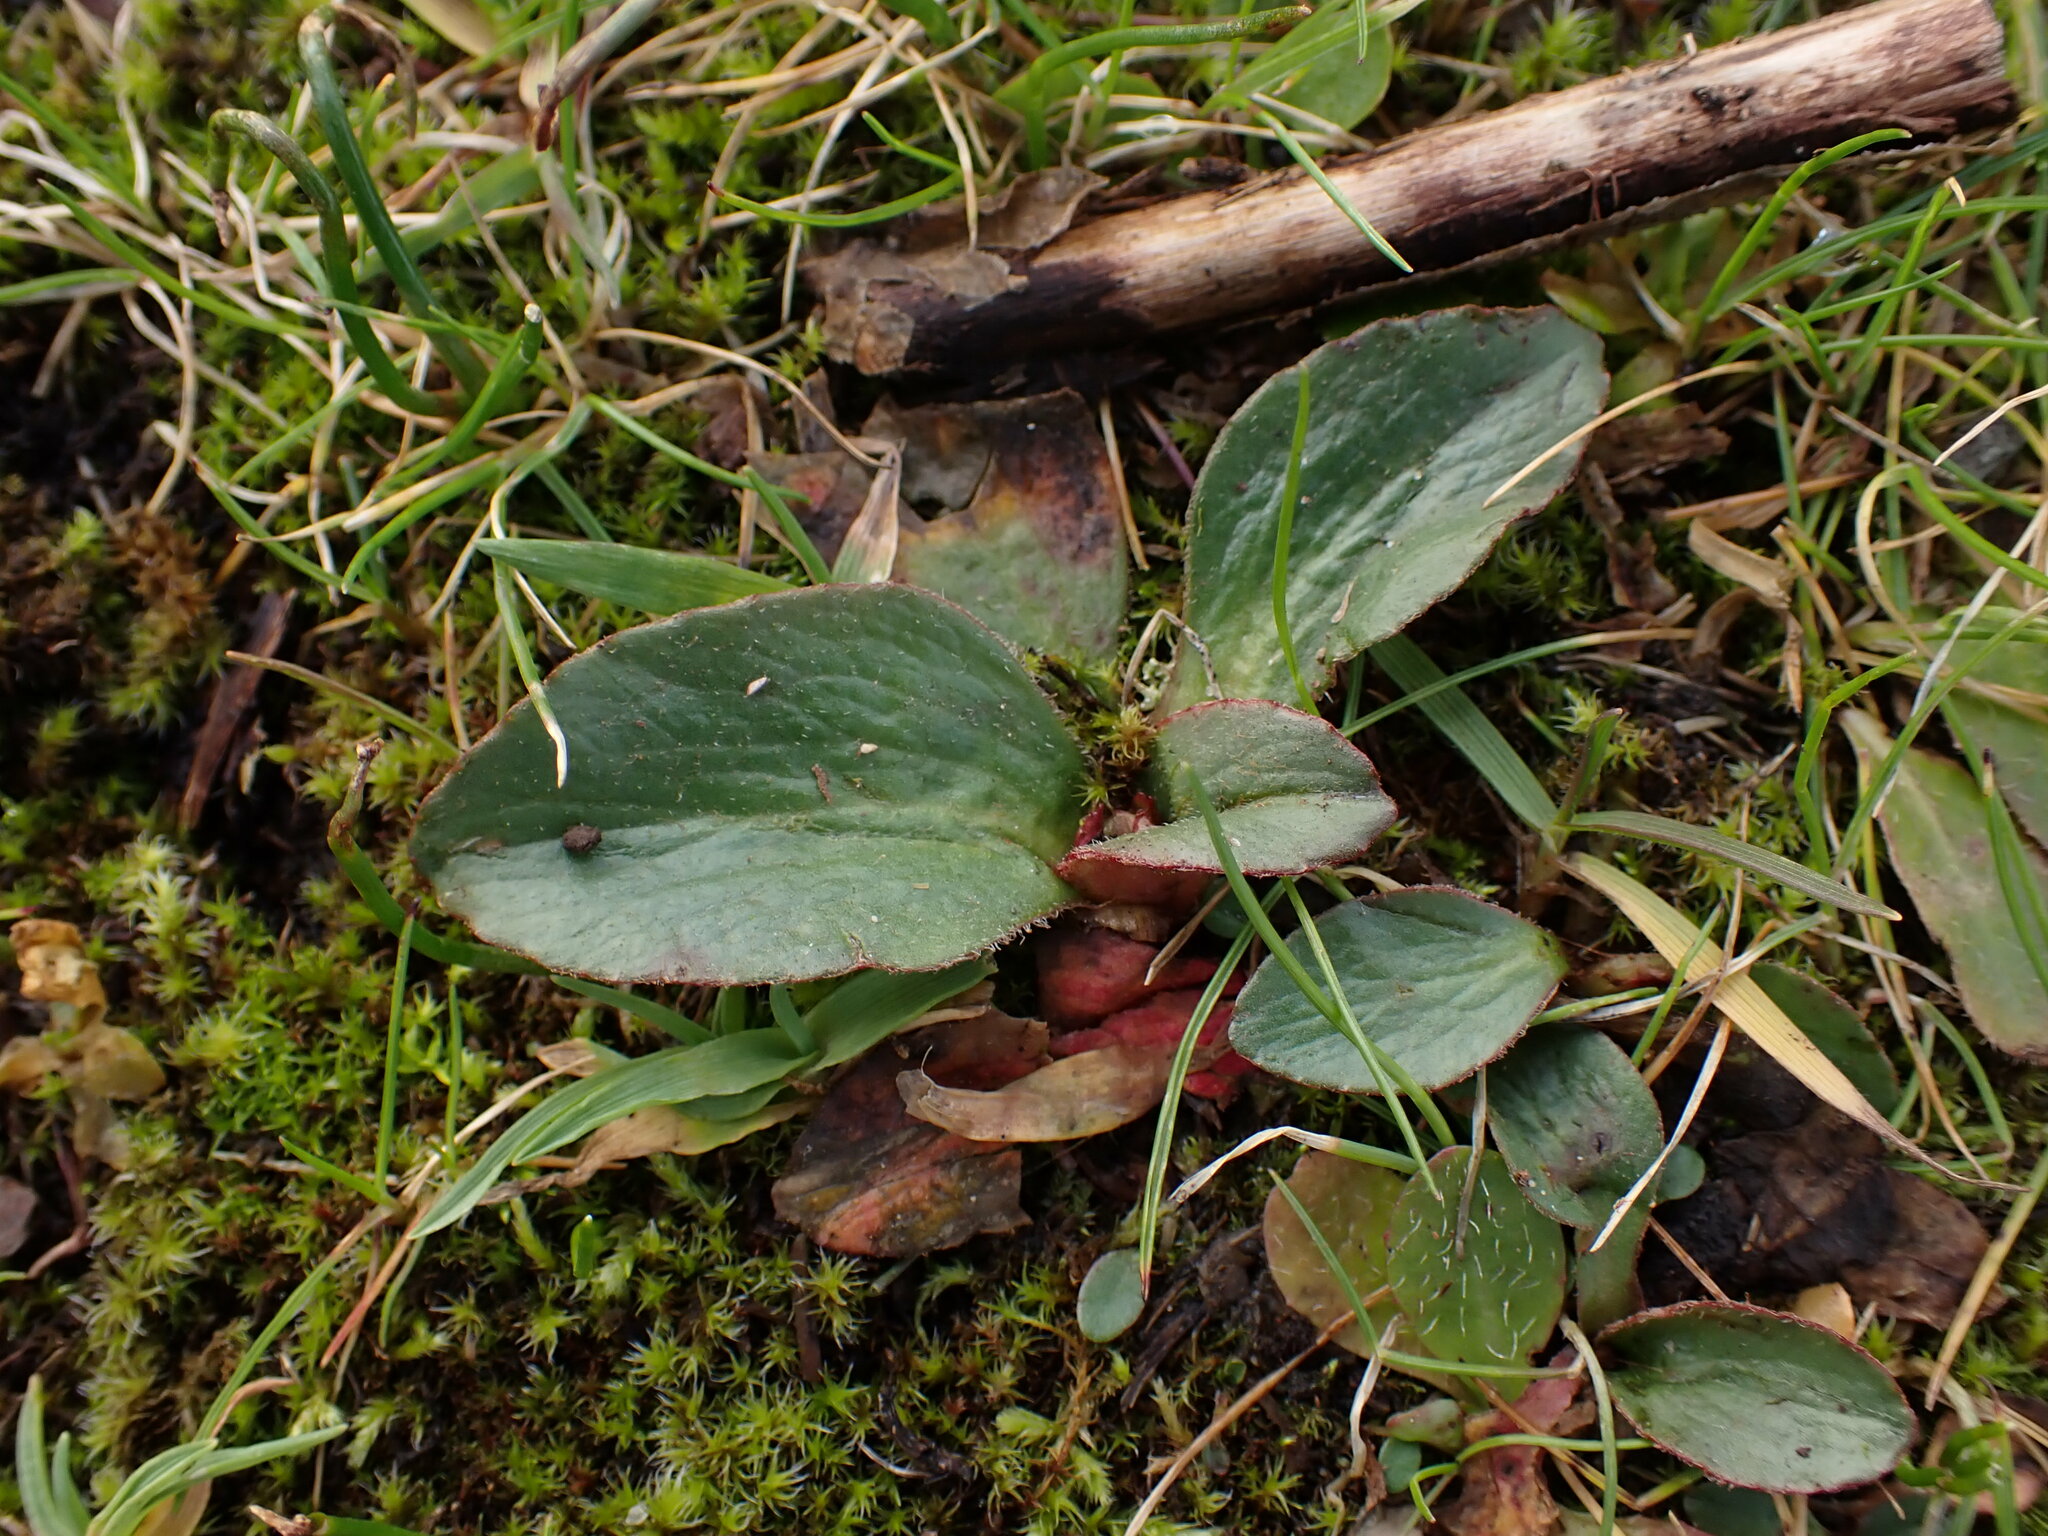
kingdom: Plantae
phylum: Tracheophyta
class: Magnoliopsida
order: Saxifragales
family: Saxifragaceae
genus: Micranthes
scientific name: Micranthes integrifolia
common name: Wholeleaf saxifrage
